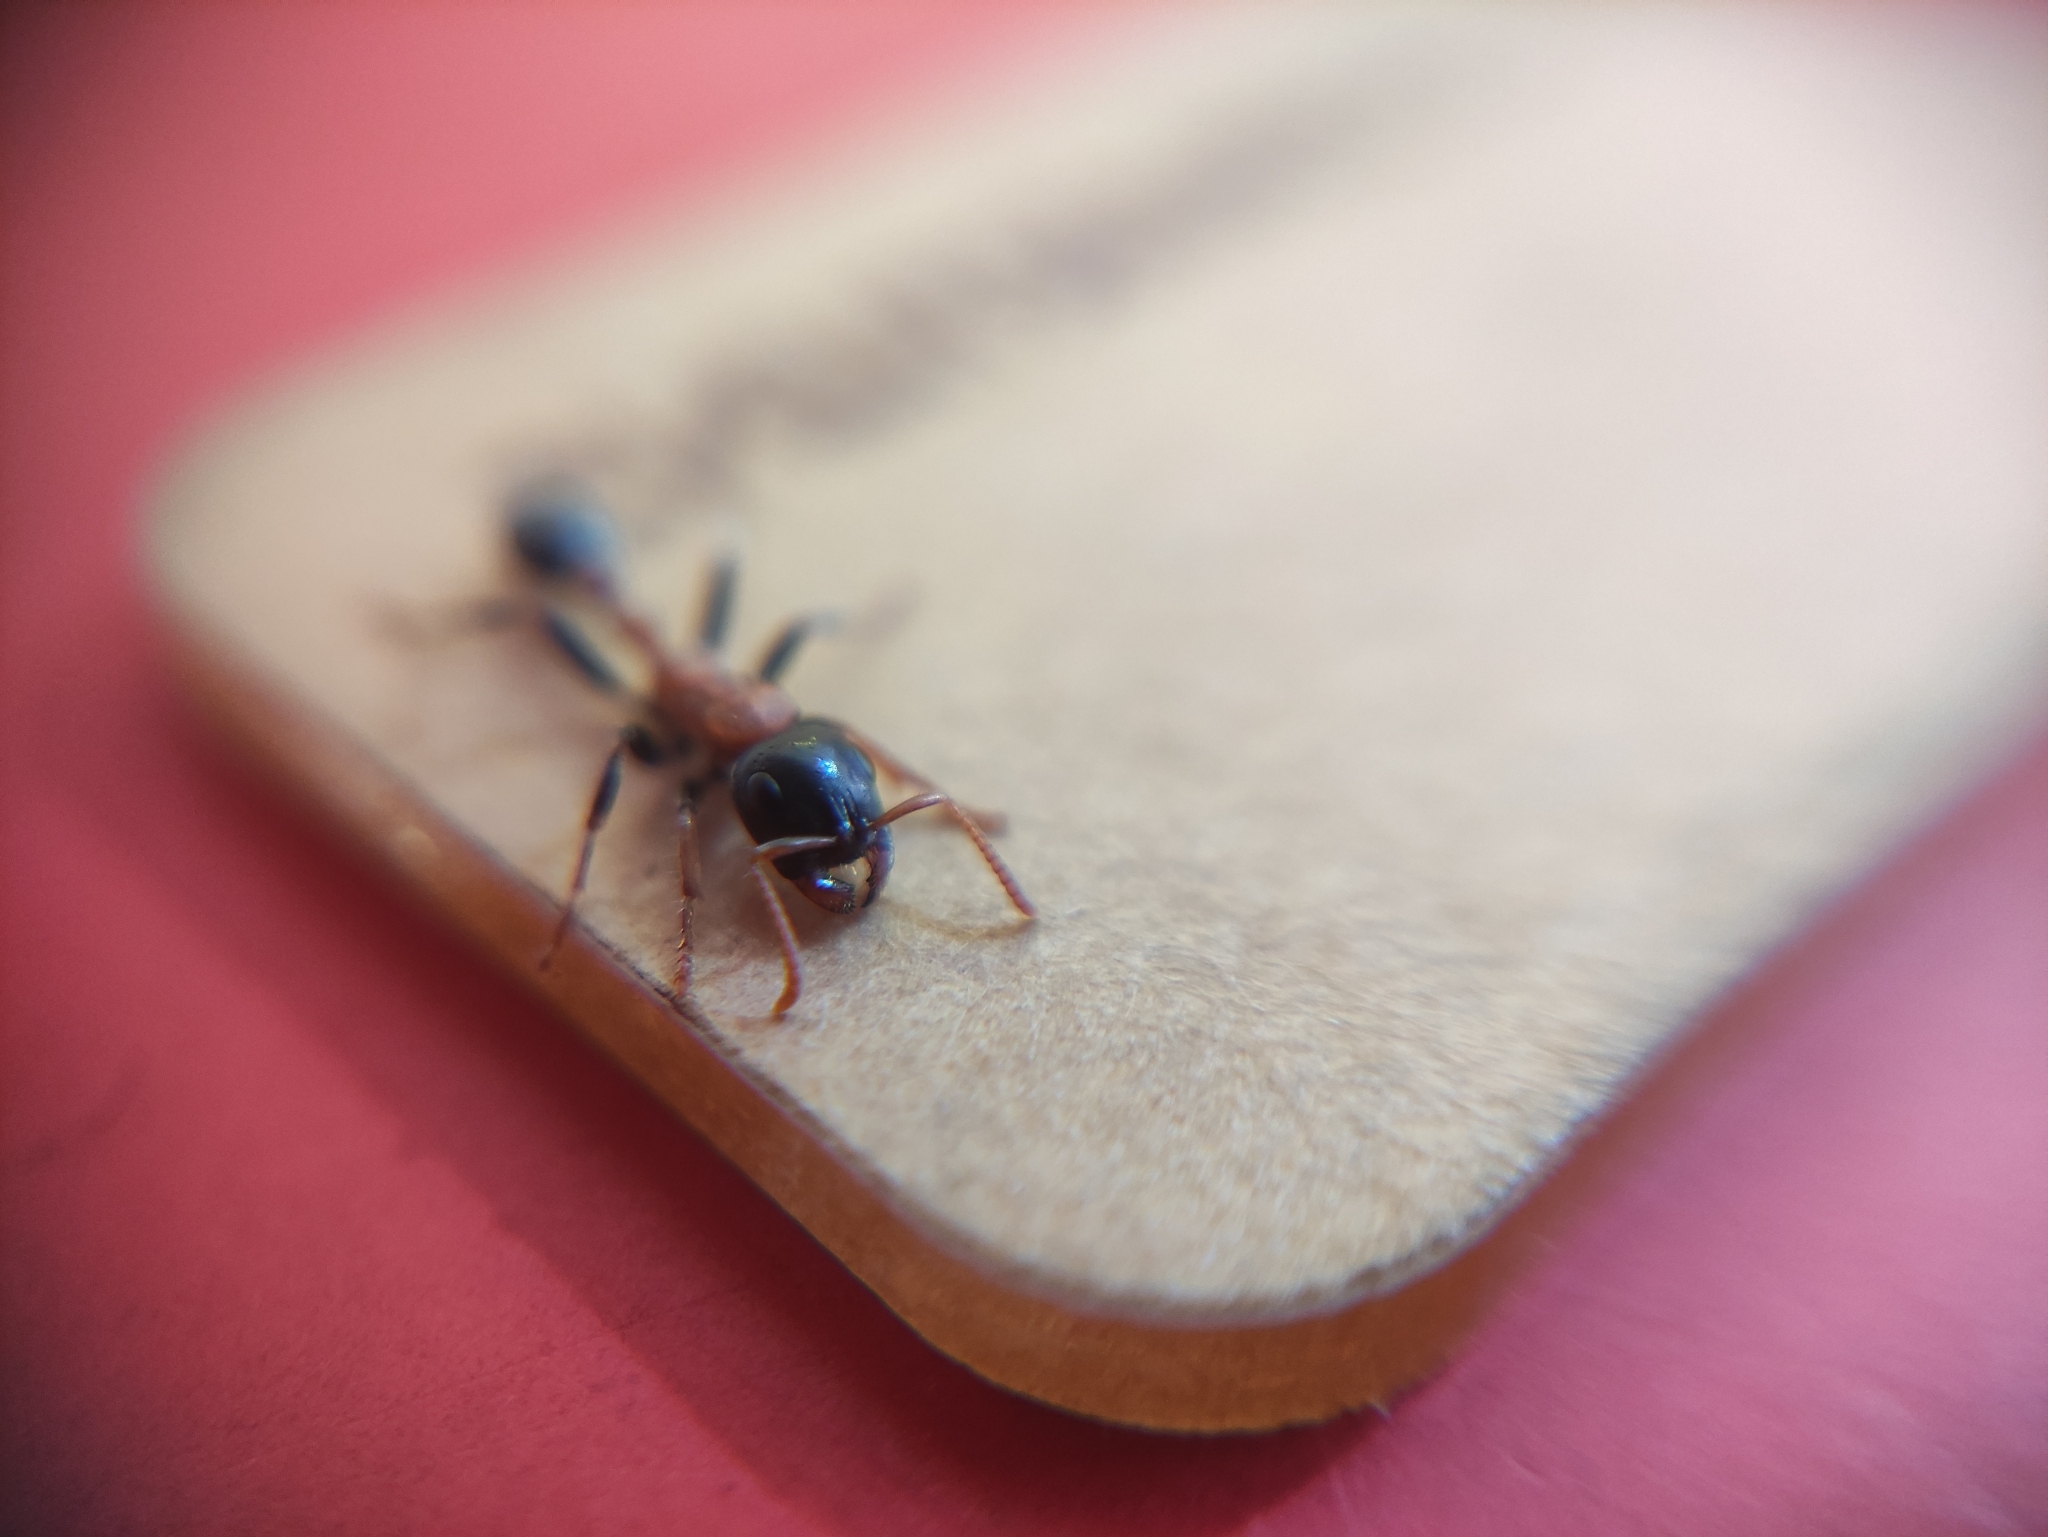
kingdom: Animalia
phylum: Arthropoda
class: Insecta
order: Hymenoptera
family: Formicidae
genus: Tetraponera
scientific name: Tetraponera rufonigra
